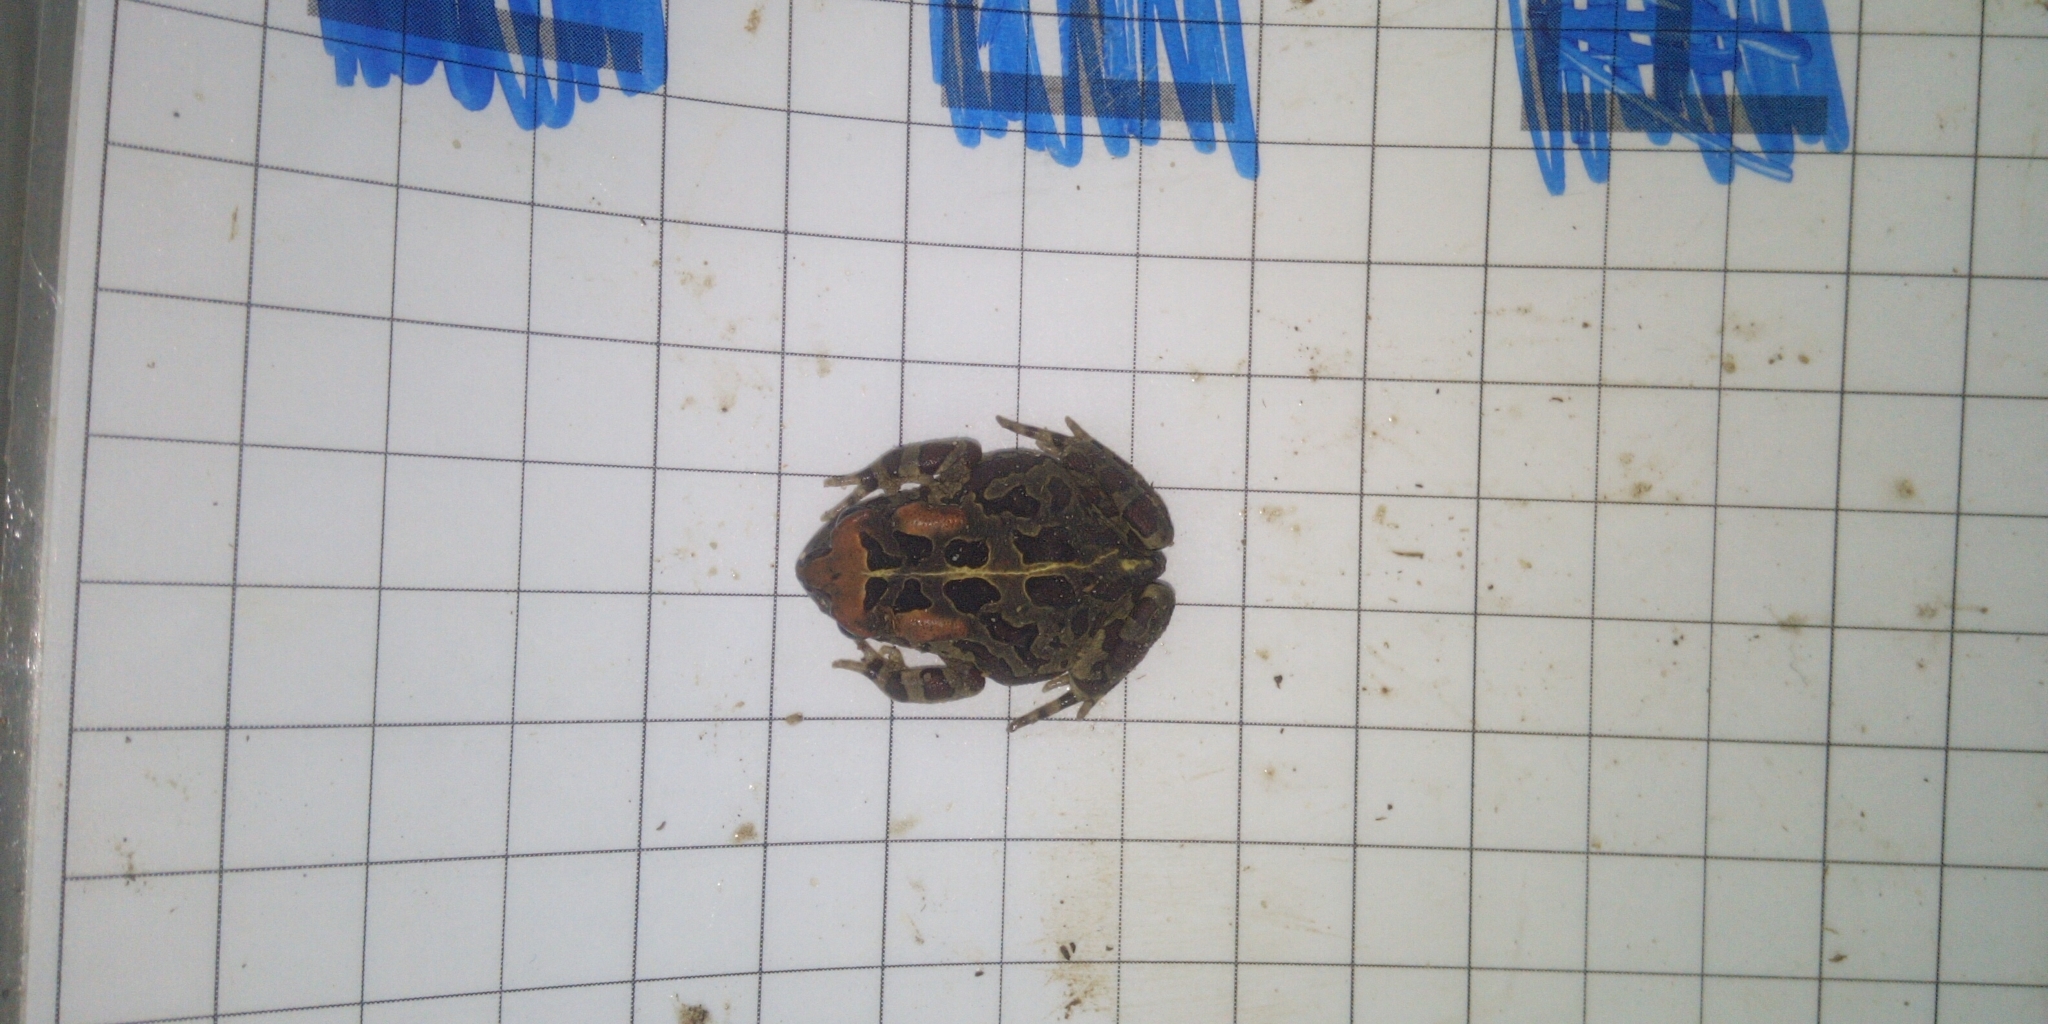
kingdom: Animalia
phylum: Chordata
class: Amphibia
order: Anura
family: Bufonidae
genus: Sclerophrys
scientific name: Sclerophrys pantherina
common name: Panther toad
